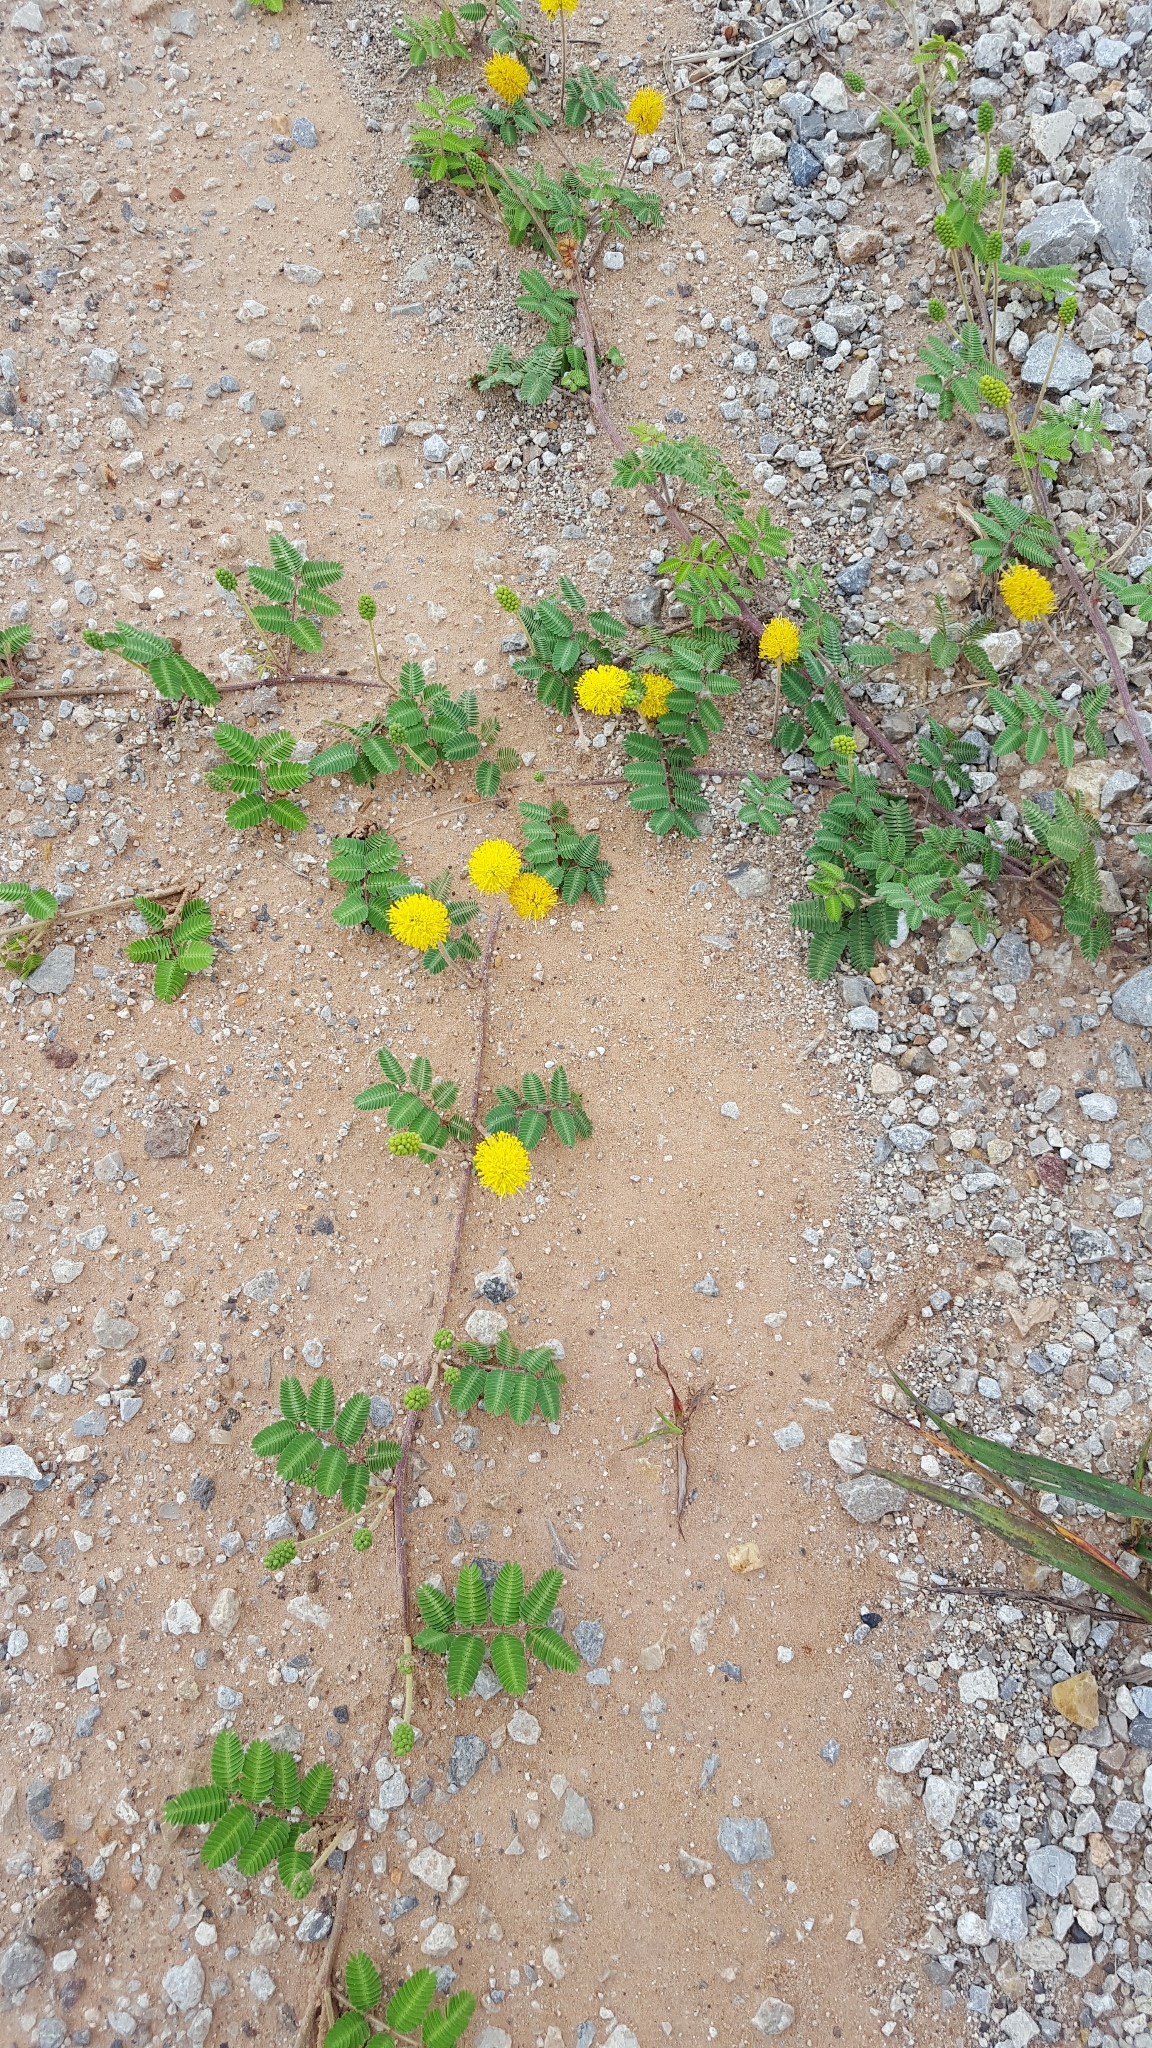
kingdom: Plantae
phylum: Tracheophyta
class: Magnoliopsida
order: Fabales
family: Fabaceae
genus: Neptunia
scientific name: Neptunia lutea
